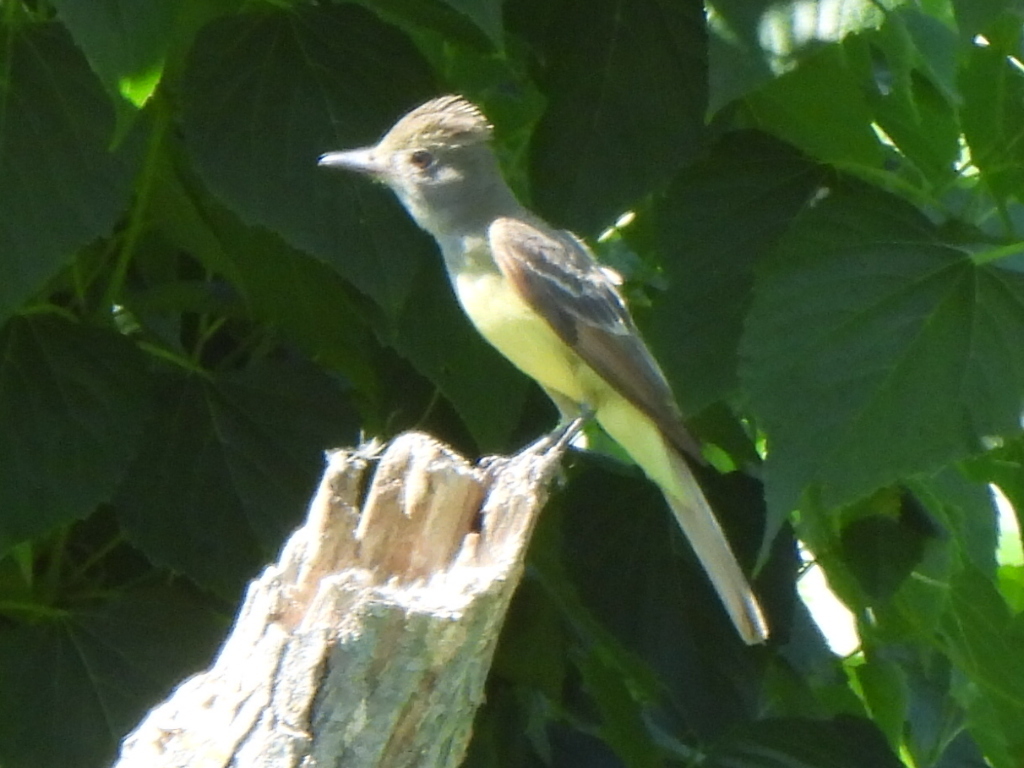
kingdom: Animalia
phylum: Chordata
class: Aves
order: Passeriformes
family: Tyrannidae
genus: Myiarchus
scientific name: Myiarchus crinitus
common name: Great crested flycatcher
